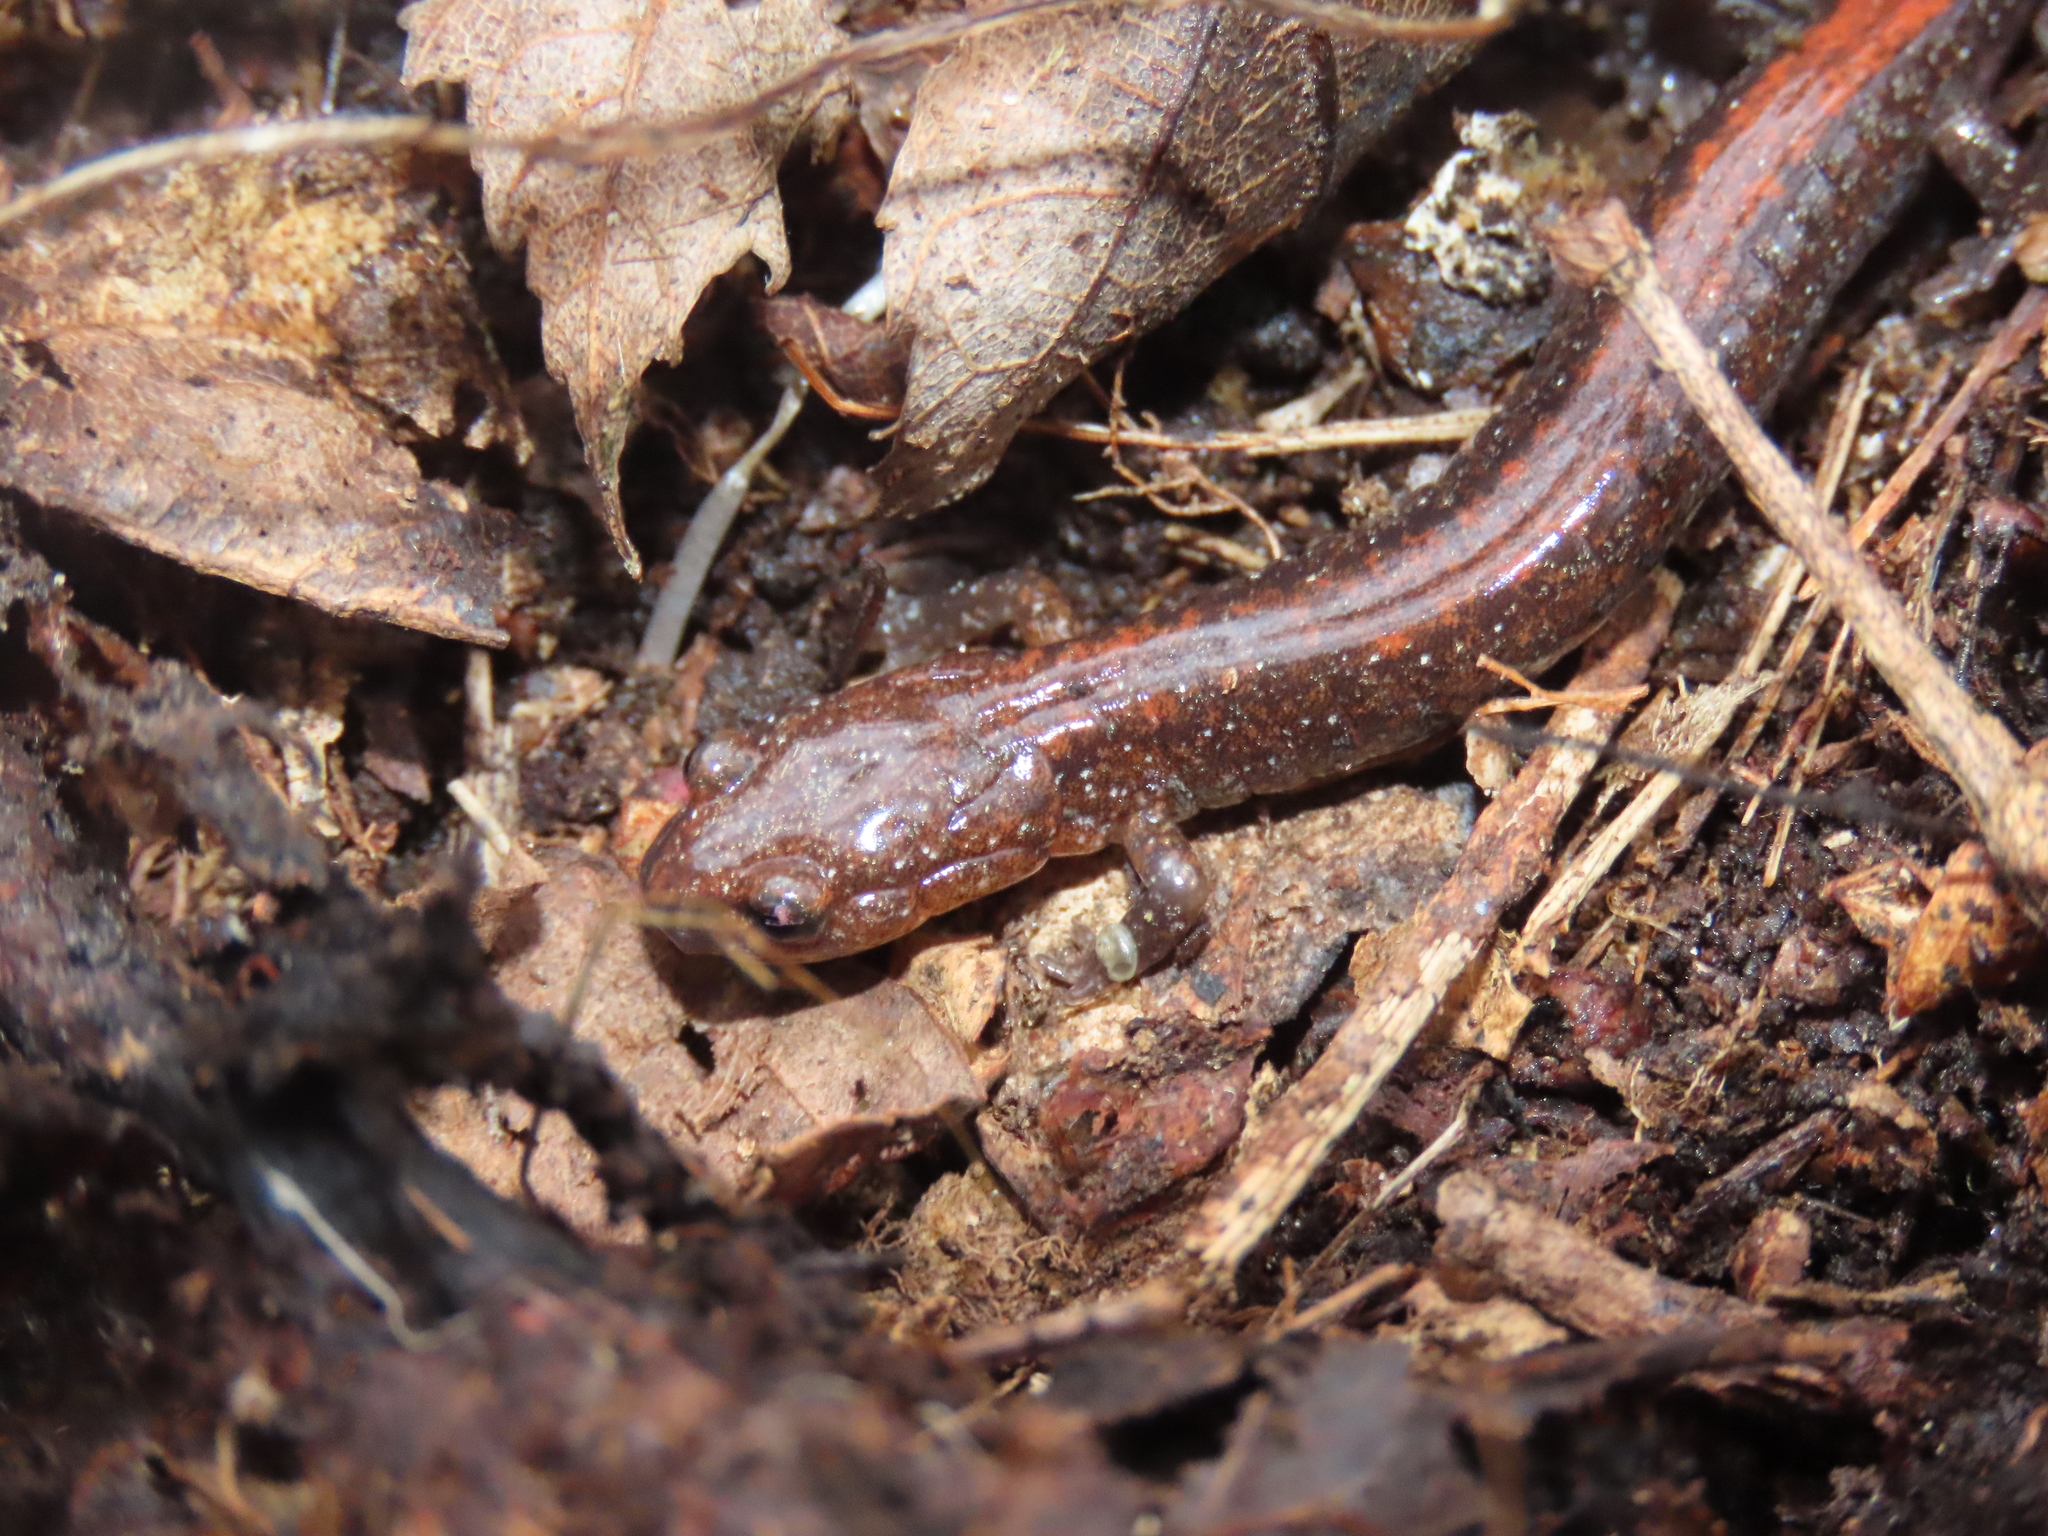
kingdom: Animalia
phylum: Chordata
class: Amphibia
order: Caudata
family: Plethodontidae
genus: Plethodon
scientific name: Plethodon cinereus
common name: Redback salamander
